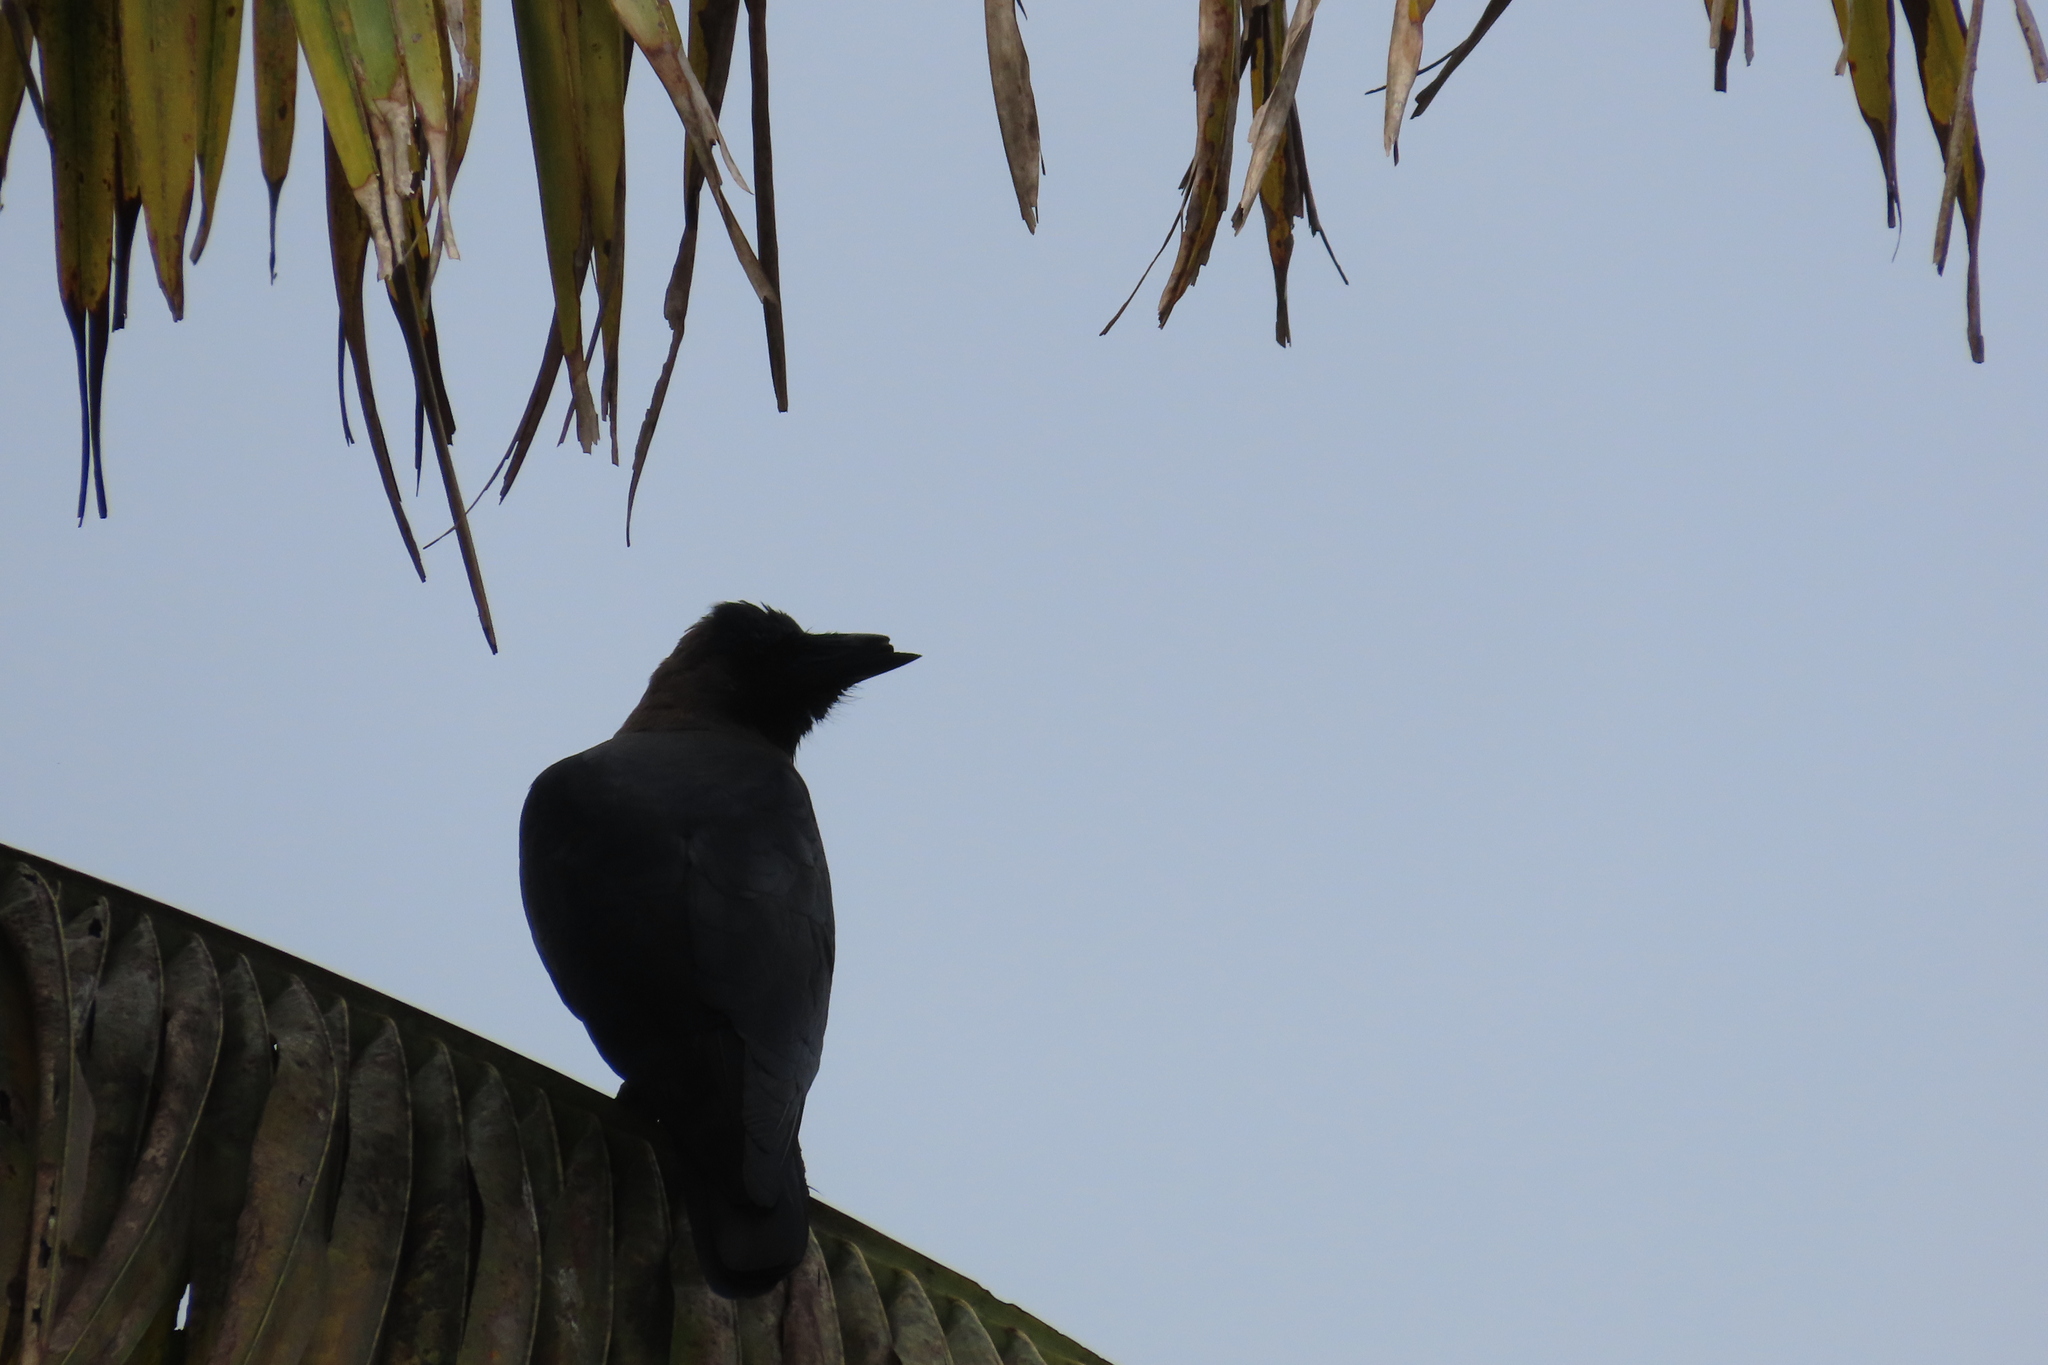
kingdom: Animalia
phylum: Chordata
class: Aves
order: Passeriformes
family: Corvidae
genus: Corvus
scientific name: Corvus splendens
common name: House crow
